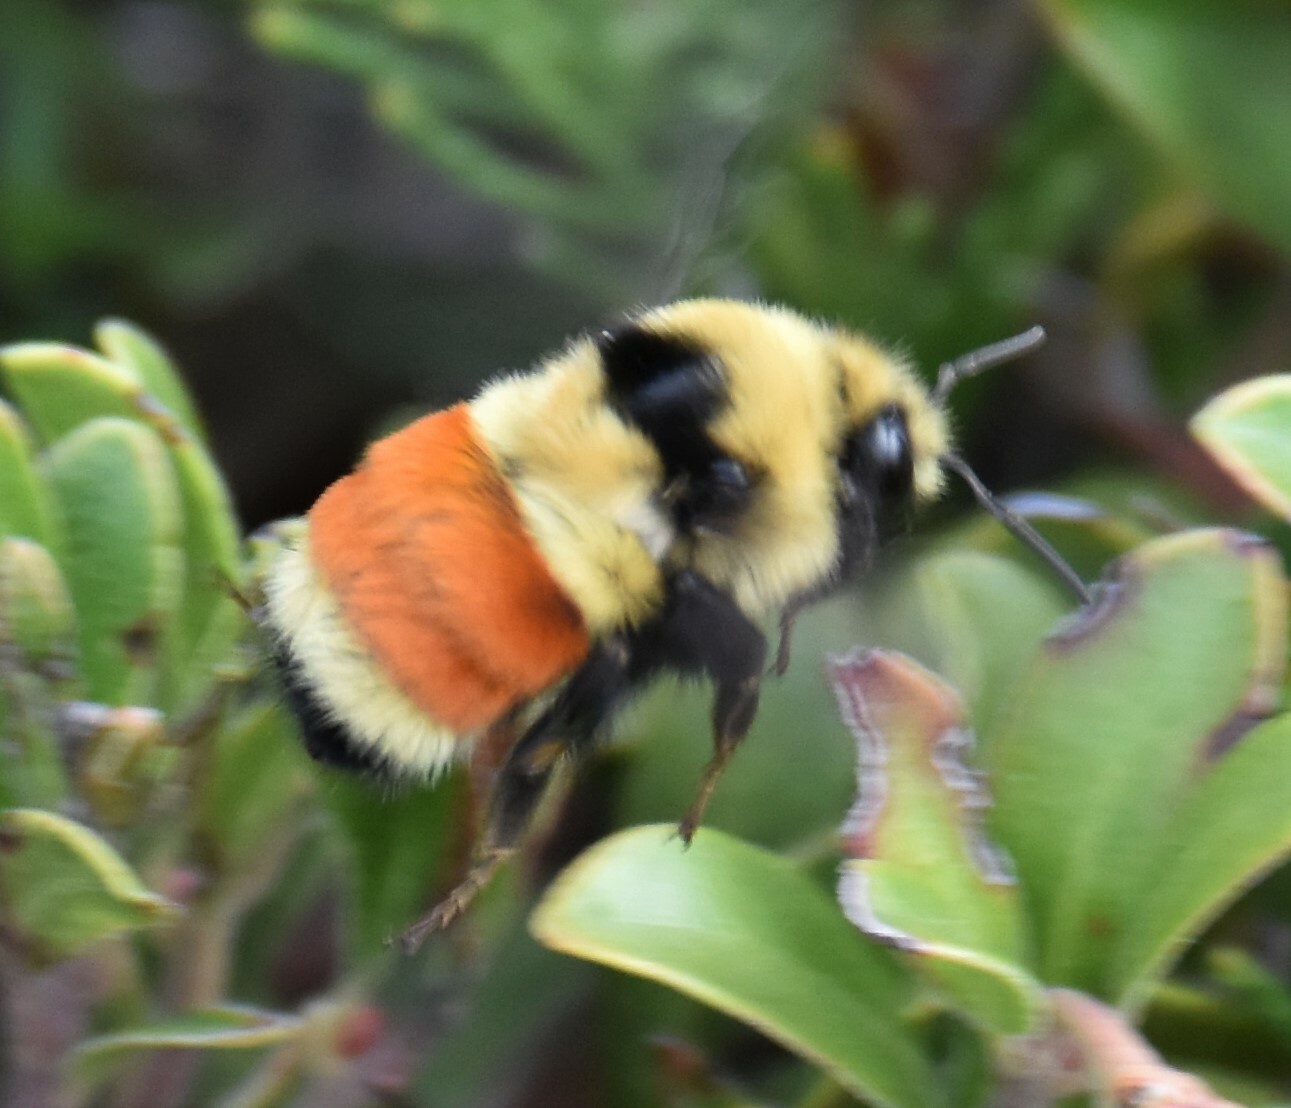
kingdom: Animalia
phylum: Arthropoda
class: Insecta
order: Hymenoptera
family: Apidae
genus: Bombus
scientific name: Bombus huntii
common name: Hunt bumble bee
